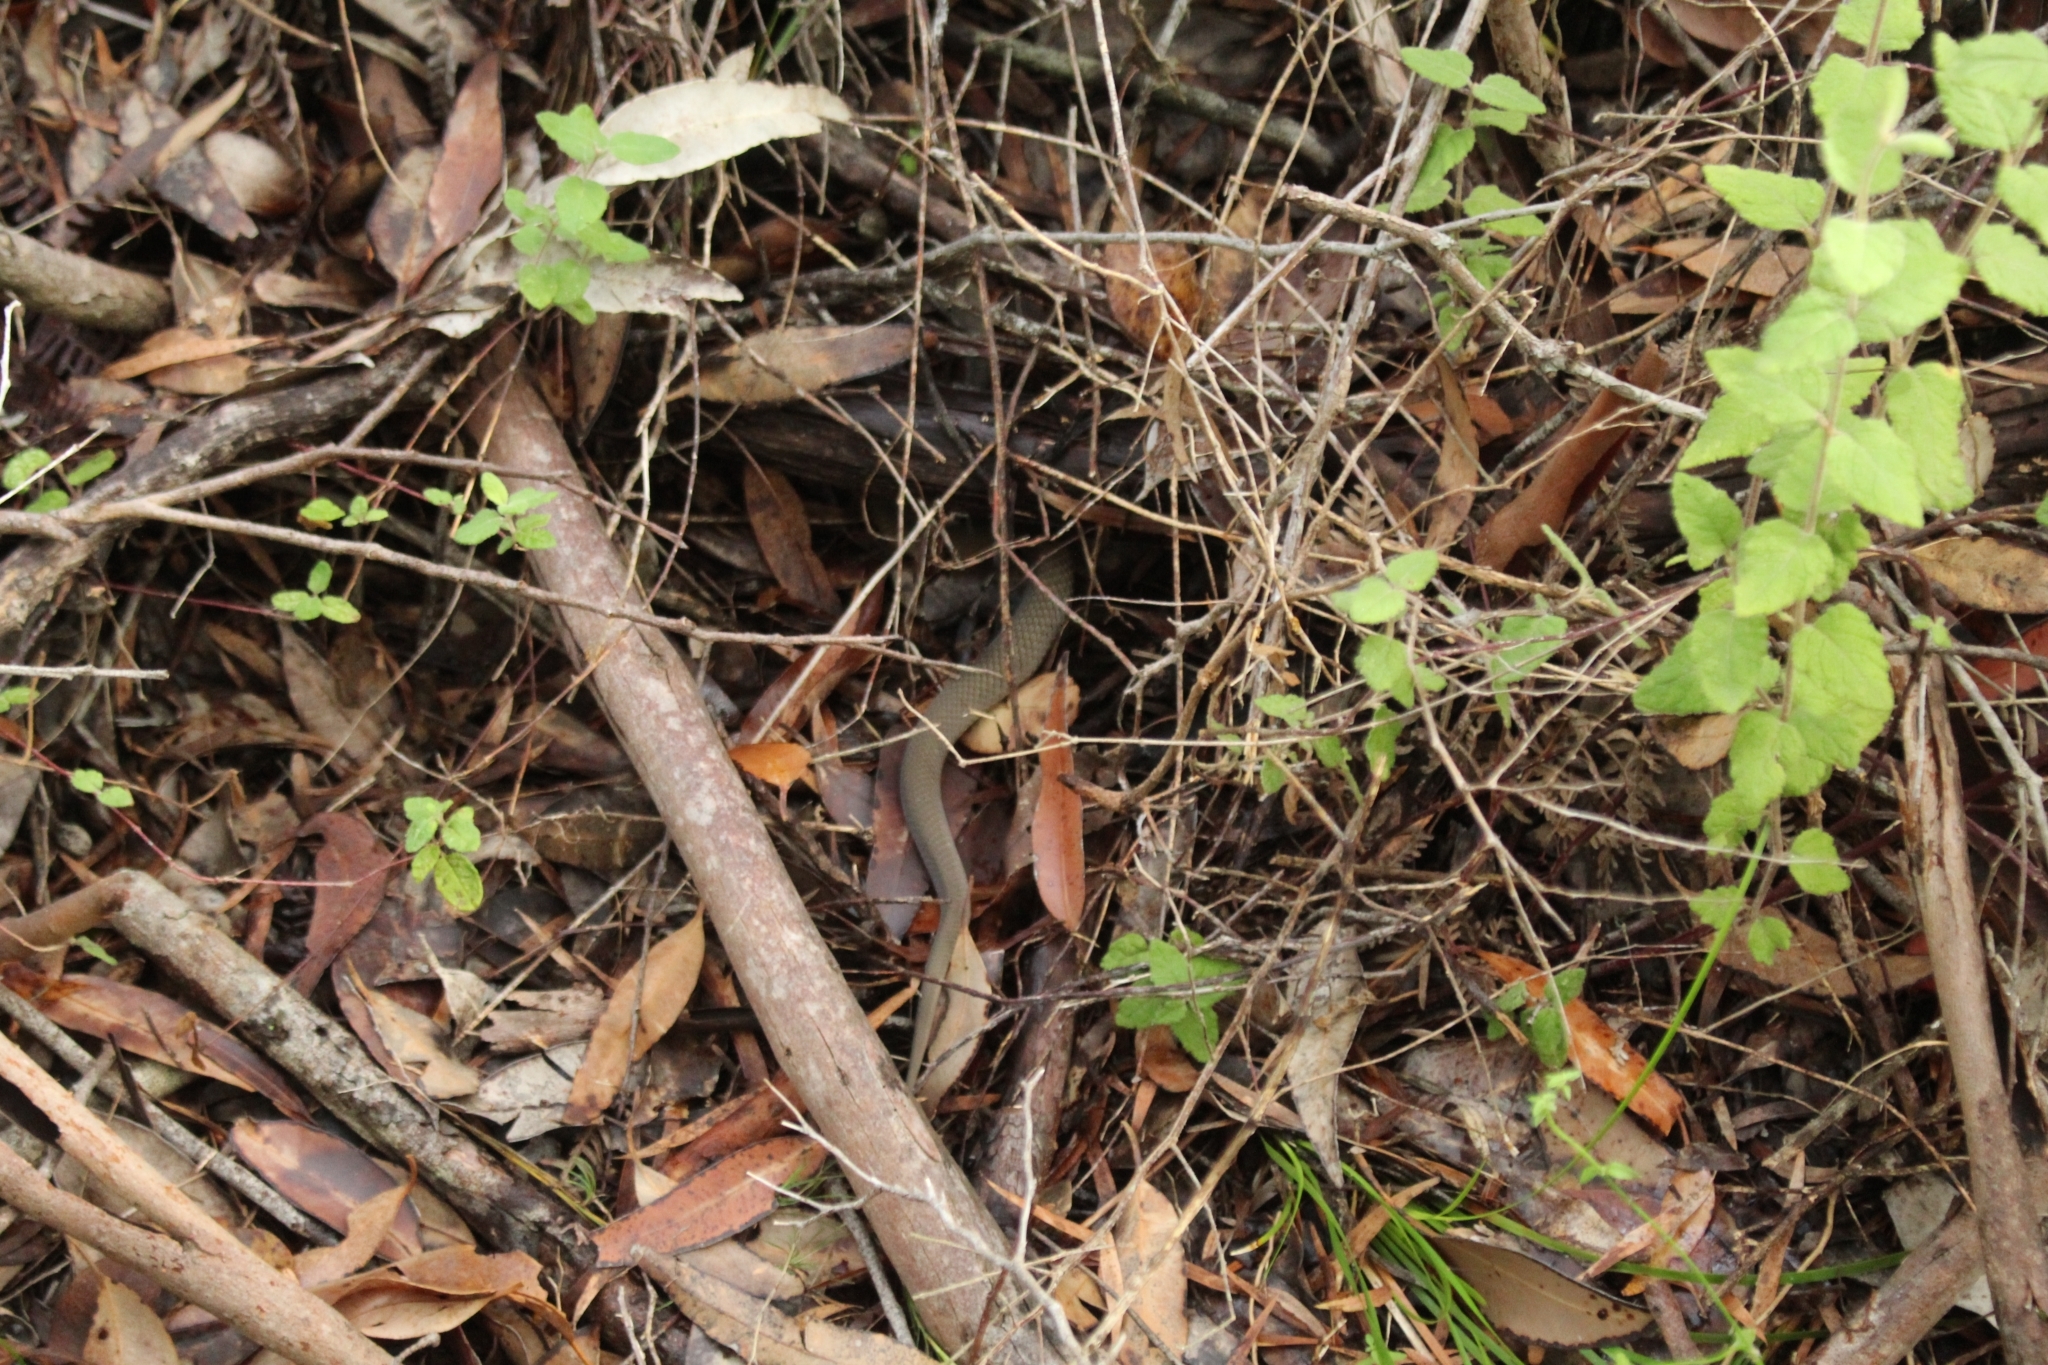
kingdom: Animalia
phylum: Chordata
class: Squamata
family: Elapidae
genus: Echiopsis
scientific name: Echiopsis curta
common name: Bardick
